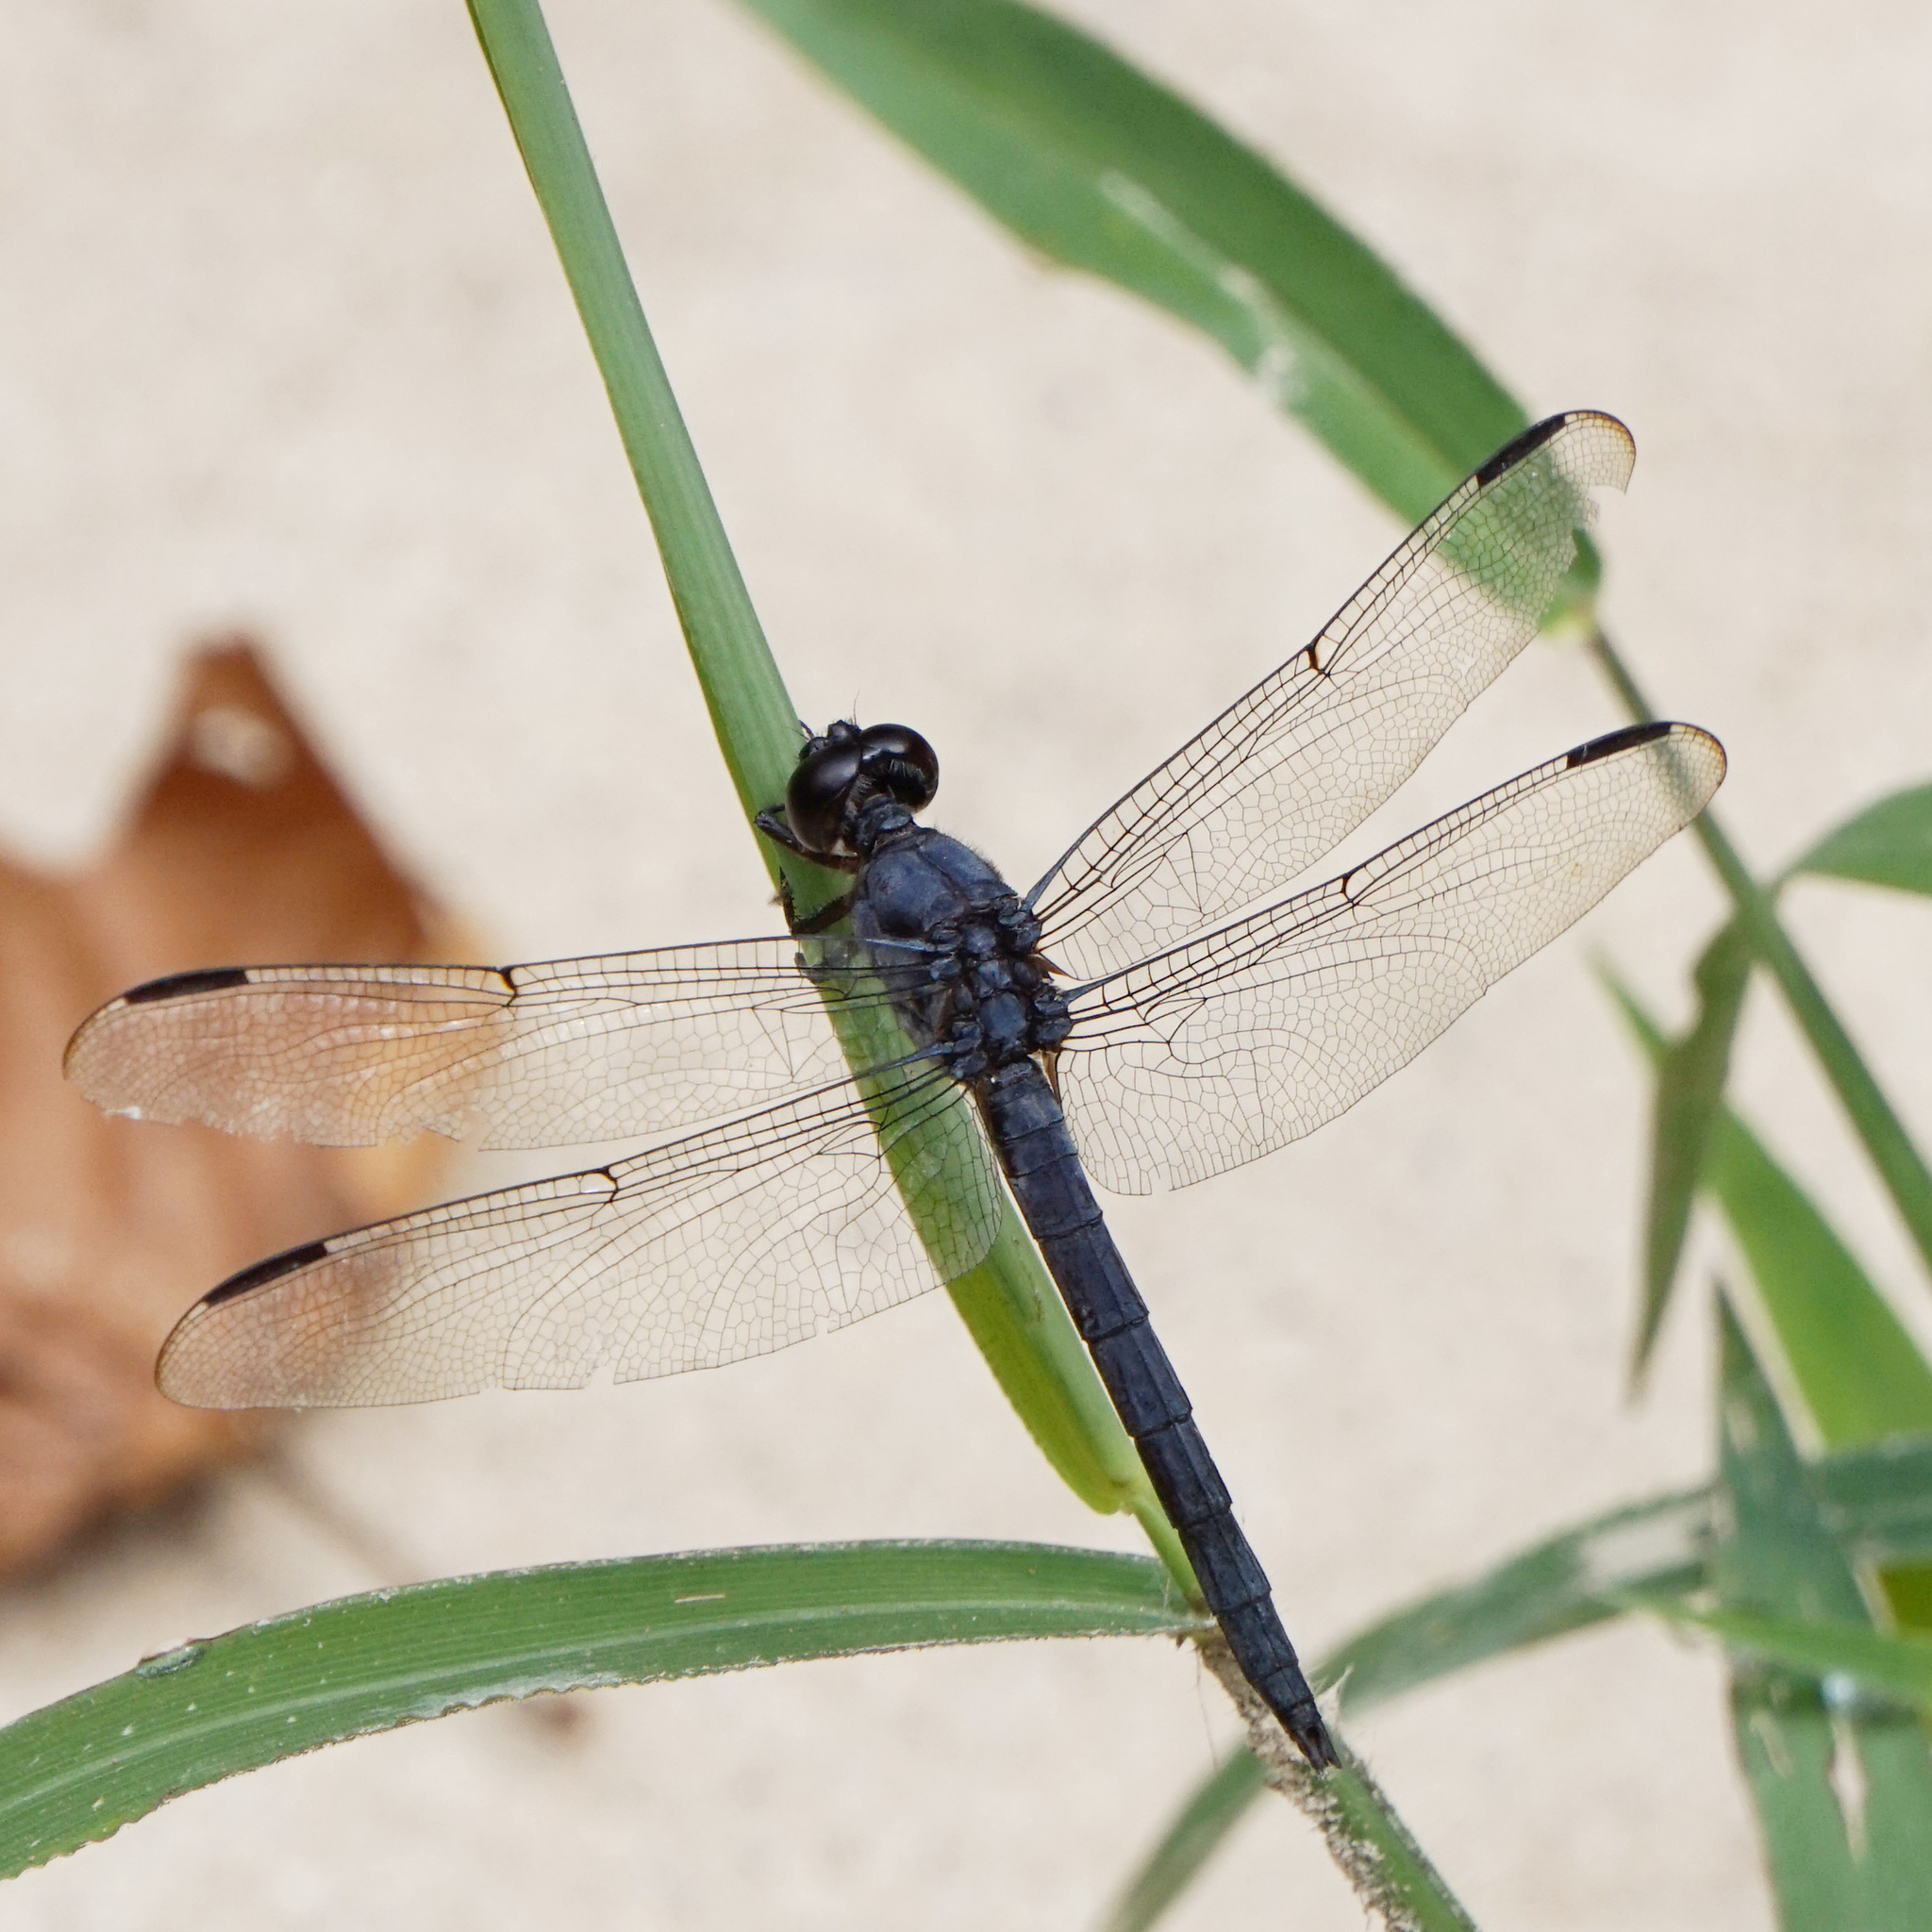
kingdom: Animalia
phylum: Arthropoda
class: Insecta
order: Odonata
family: Libellulidae
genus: Libellula
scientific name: Libellula incesta
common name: Slaty skimmer
